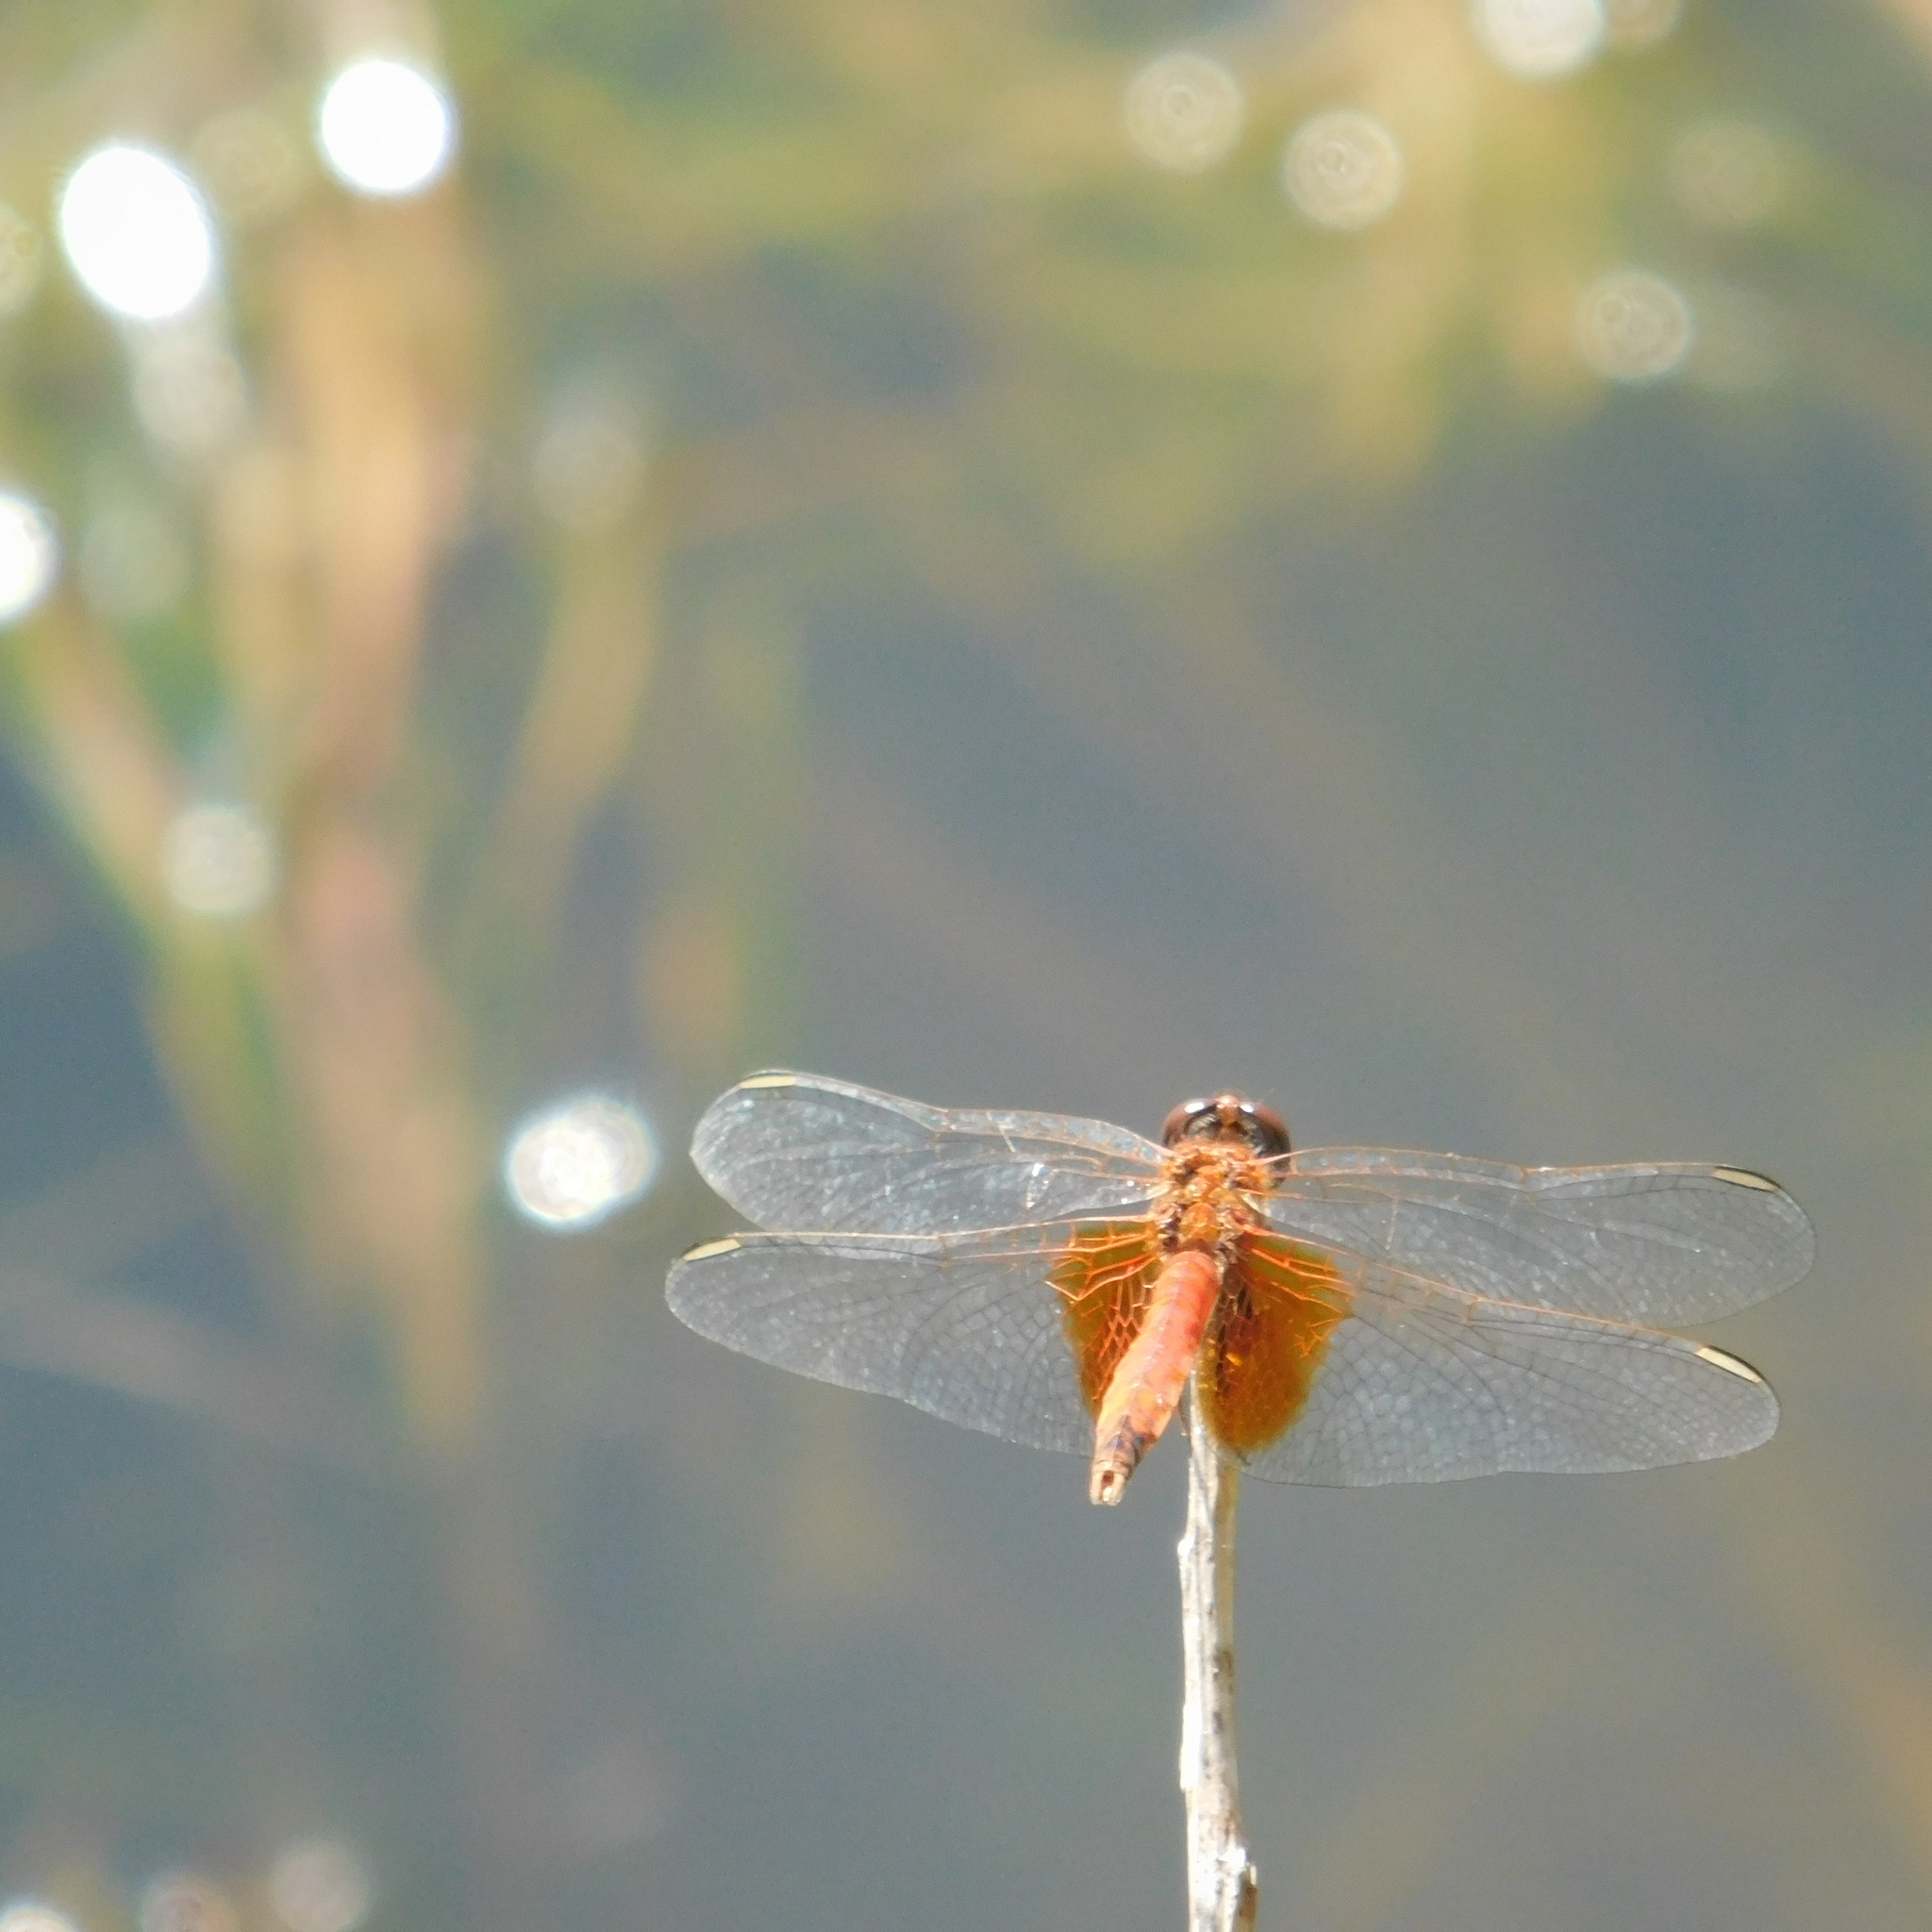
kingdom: Animalia
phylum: Arthropoda
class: Insecta
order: Odonata
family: Libellulidae
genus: Erythrodiplax
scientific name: Erythrodiplax corallina
